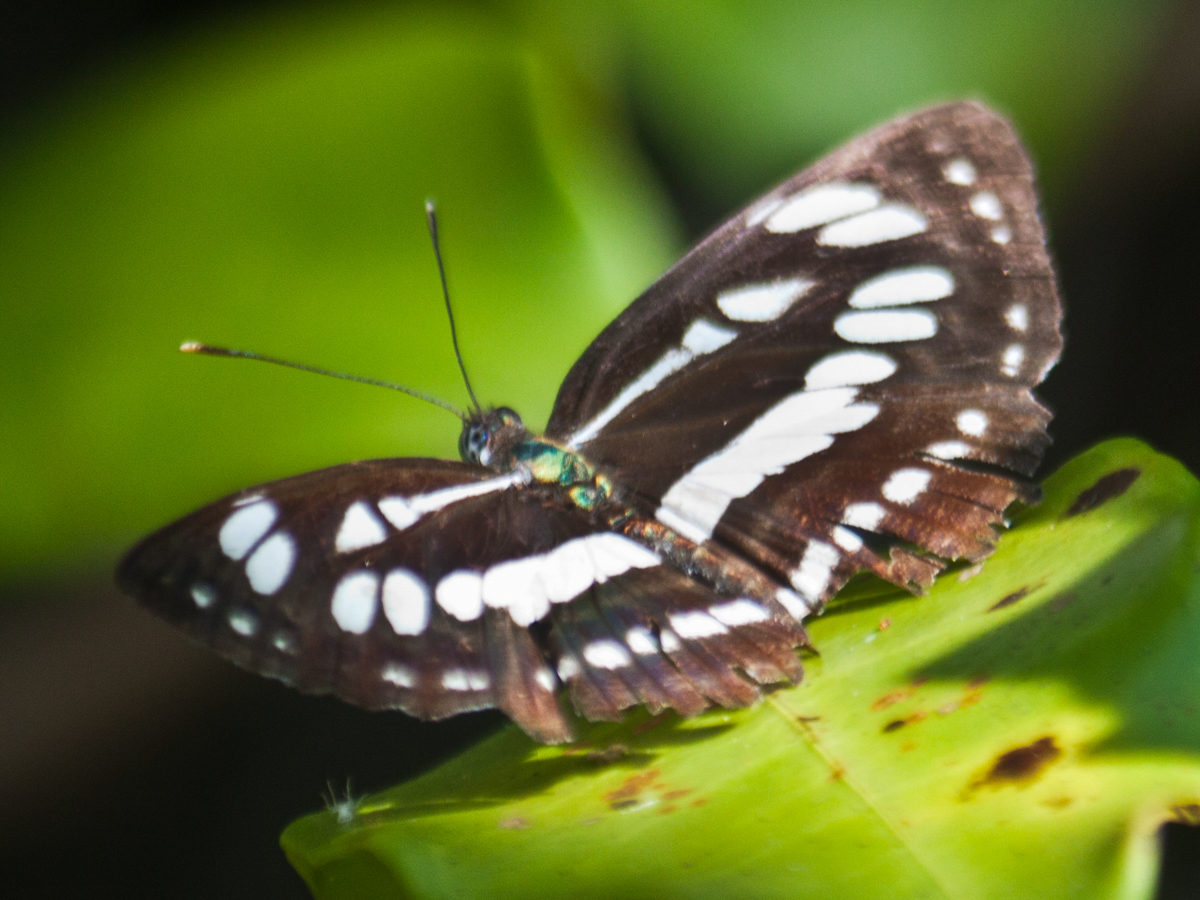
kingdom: Animalia
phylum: Arthropoda
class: Insecta
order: Lepidoptera
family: Nymphalidae
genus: Neptis
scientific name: Neptis hylas
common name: Common sailer
